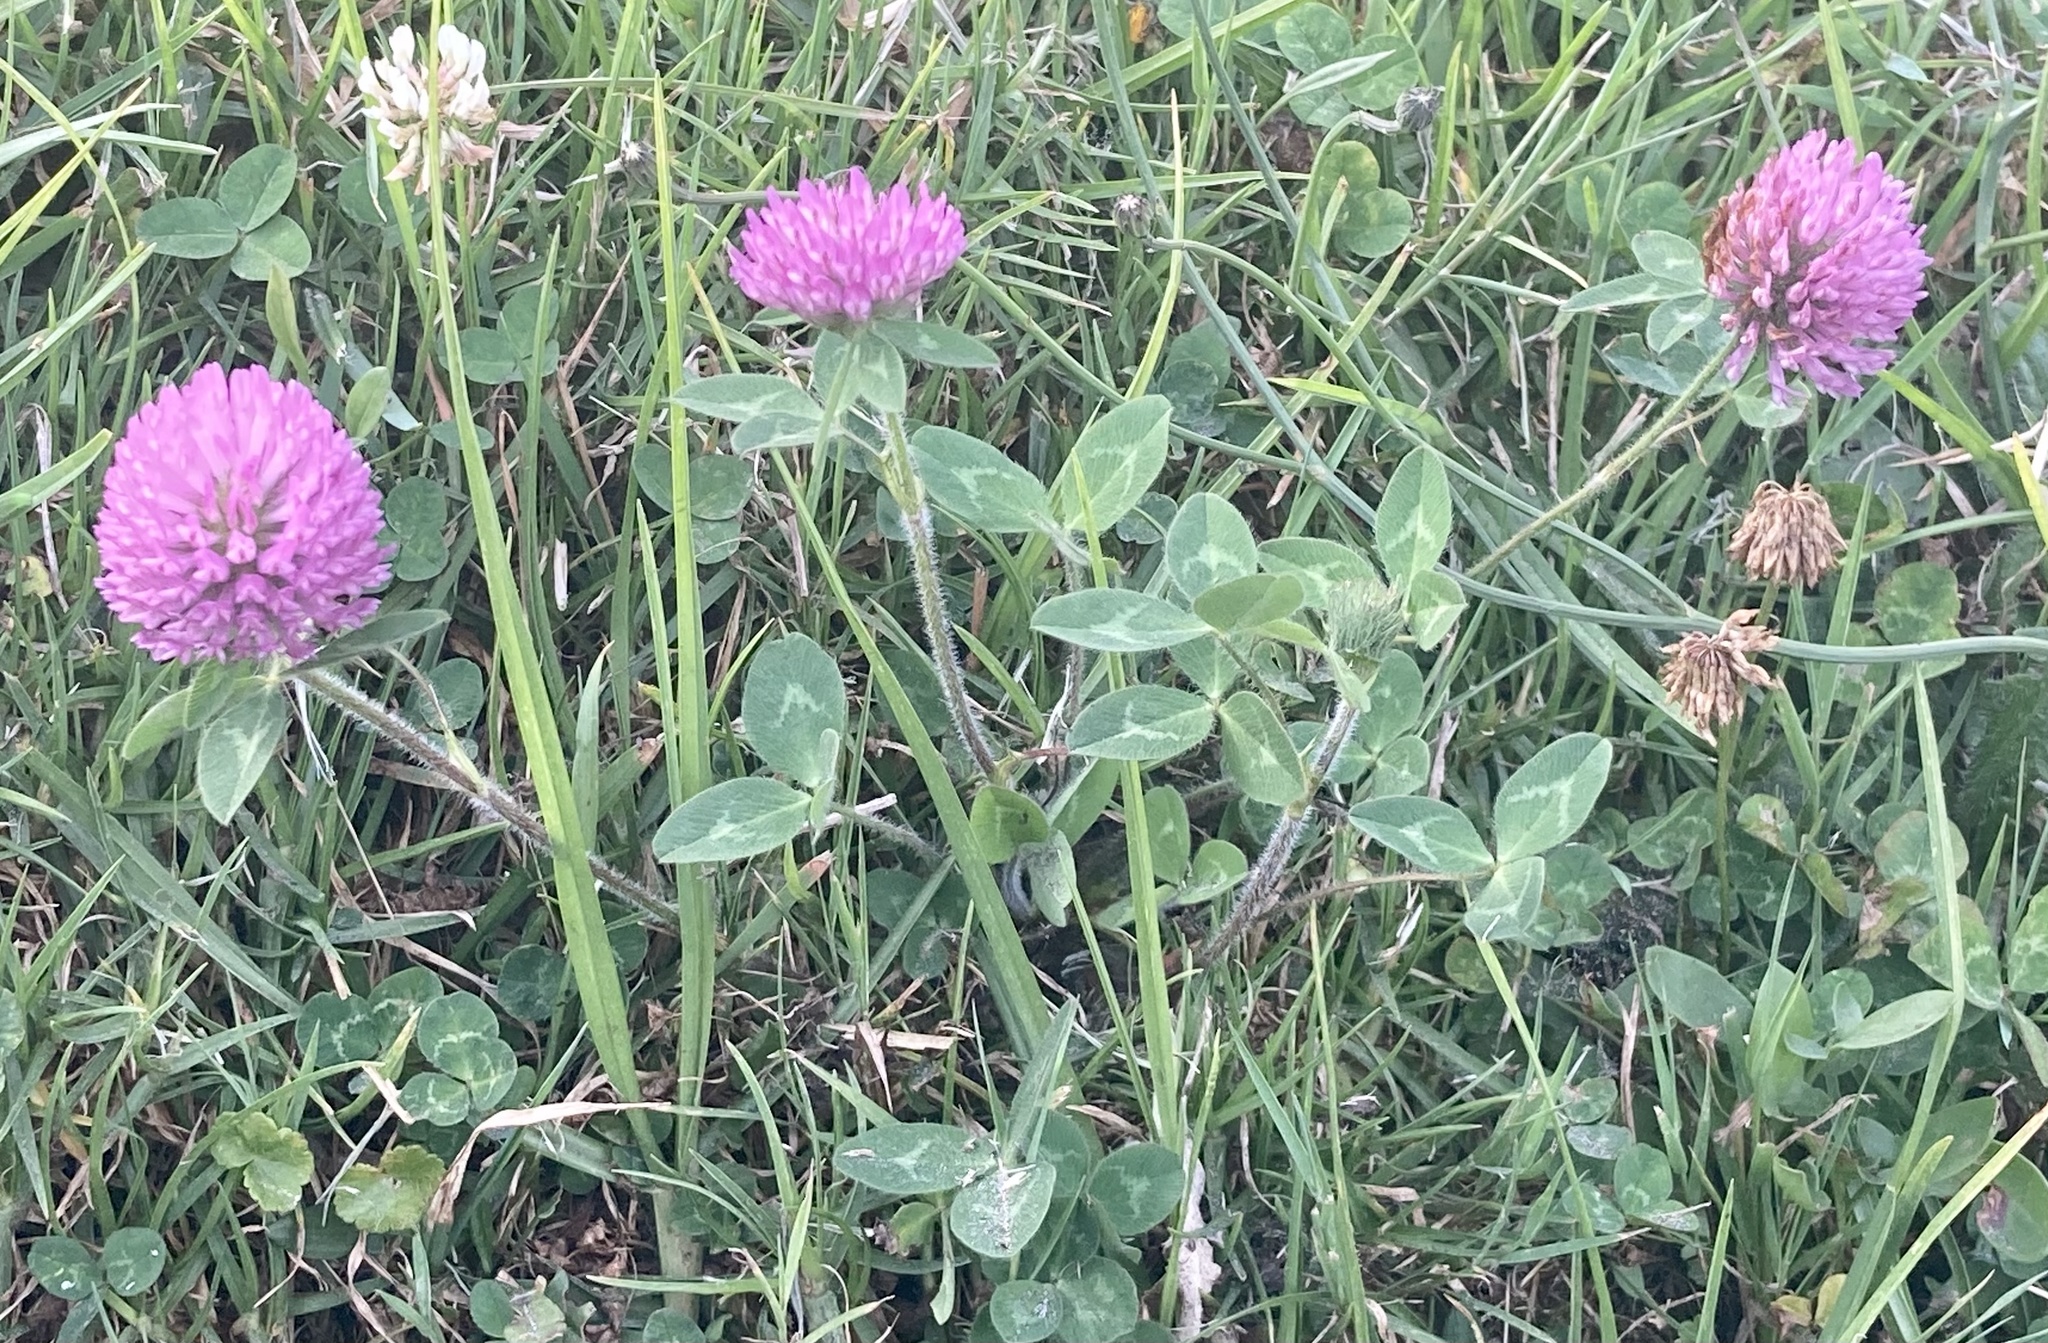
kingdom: Plantae
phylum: Tracheophyta
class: Magnoliopsida
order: Fabales
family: Fabaceae
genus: Trifolium
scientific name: Trifolium pratense
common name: Red clover
